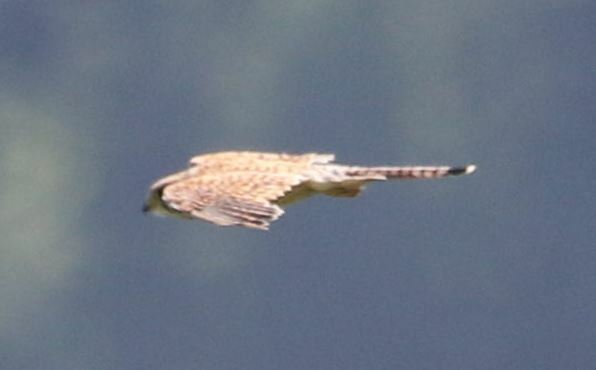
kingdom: Animalia
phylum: Chordata
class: Aves
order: Falconiformes
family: Falconidae
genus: Falco
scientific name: Falco tinnunculus
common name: Common kestrel
